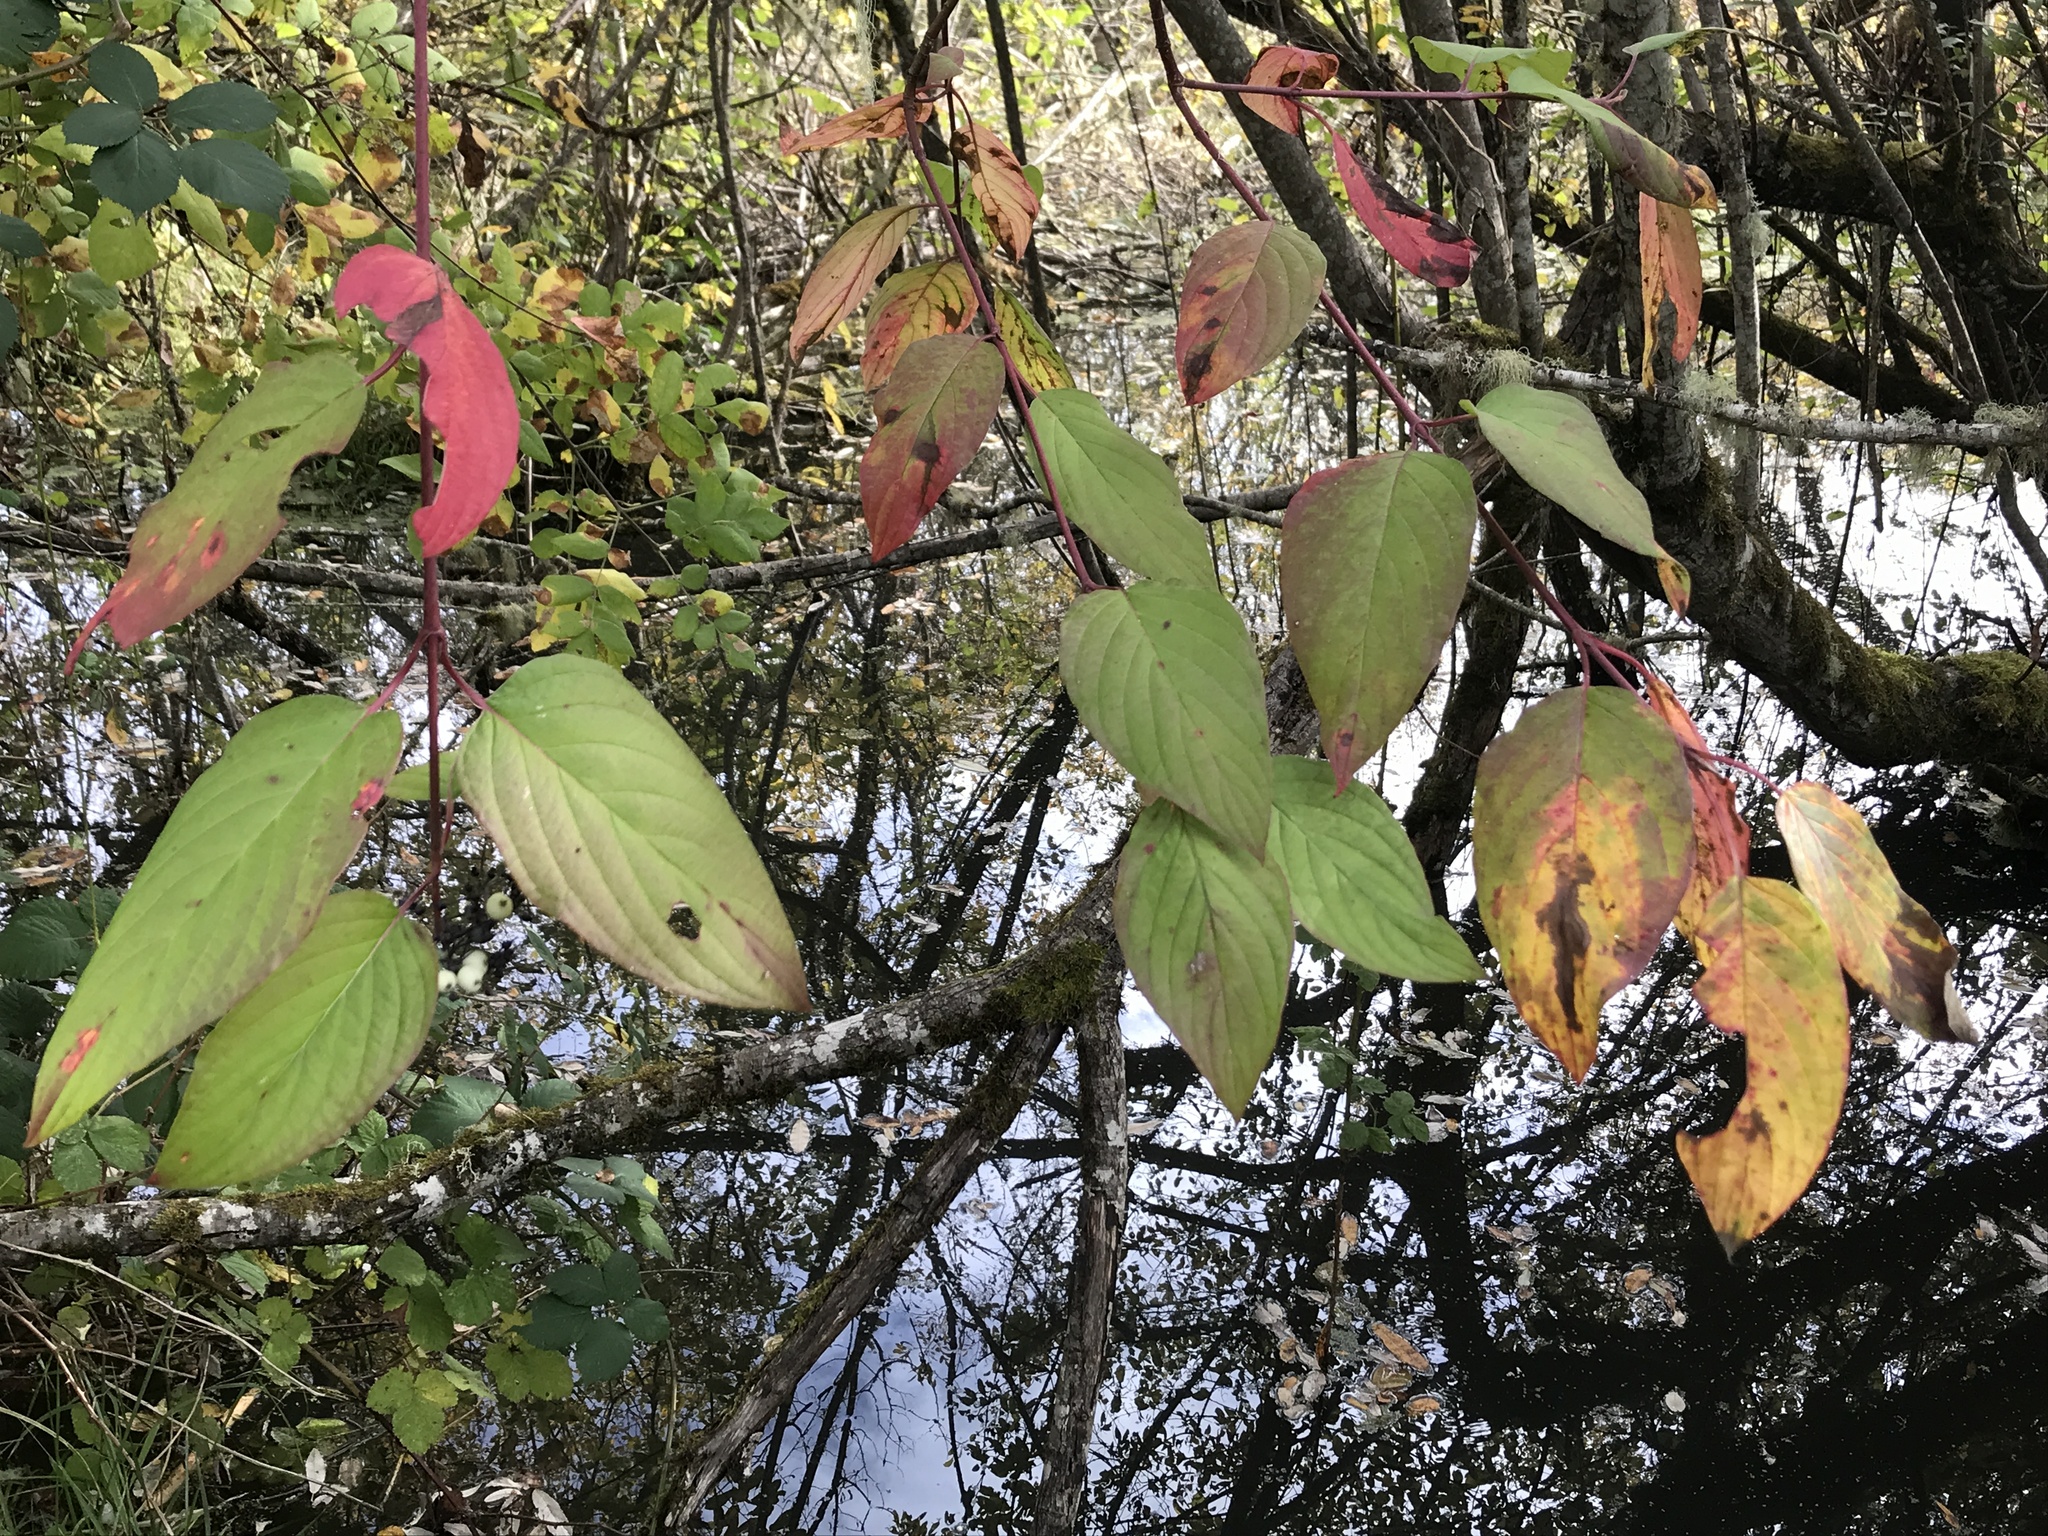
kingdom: Plantae
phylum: Tracheophyta
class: Magnoliopsida
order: Cornales
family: Cornaceae
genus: Cornus
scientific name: Cornus sericea
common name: Red-osier dogwood
